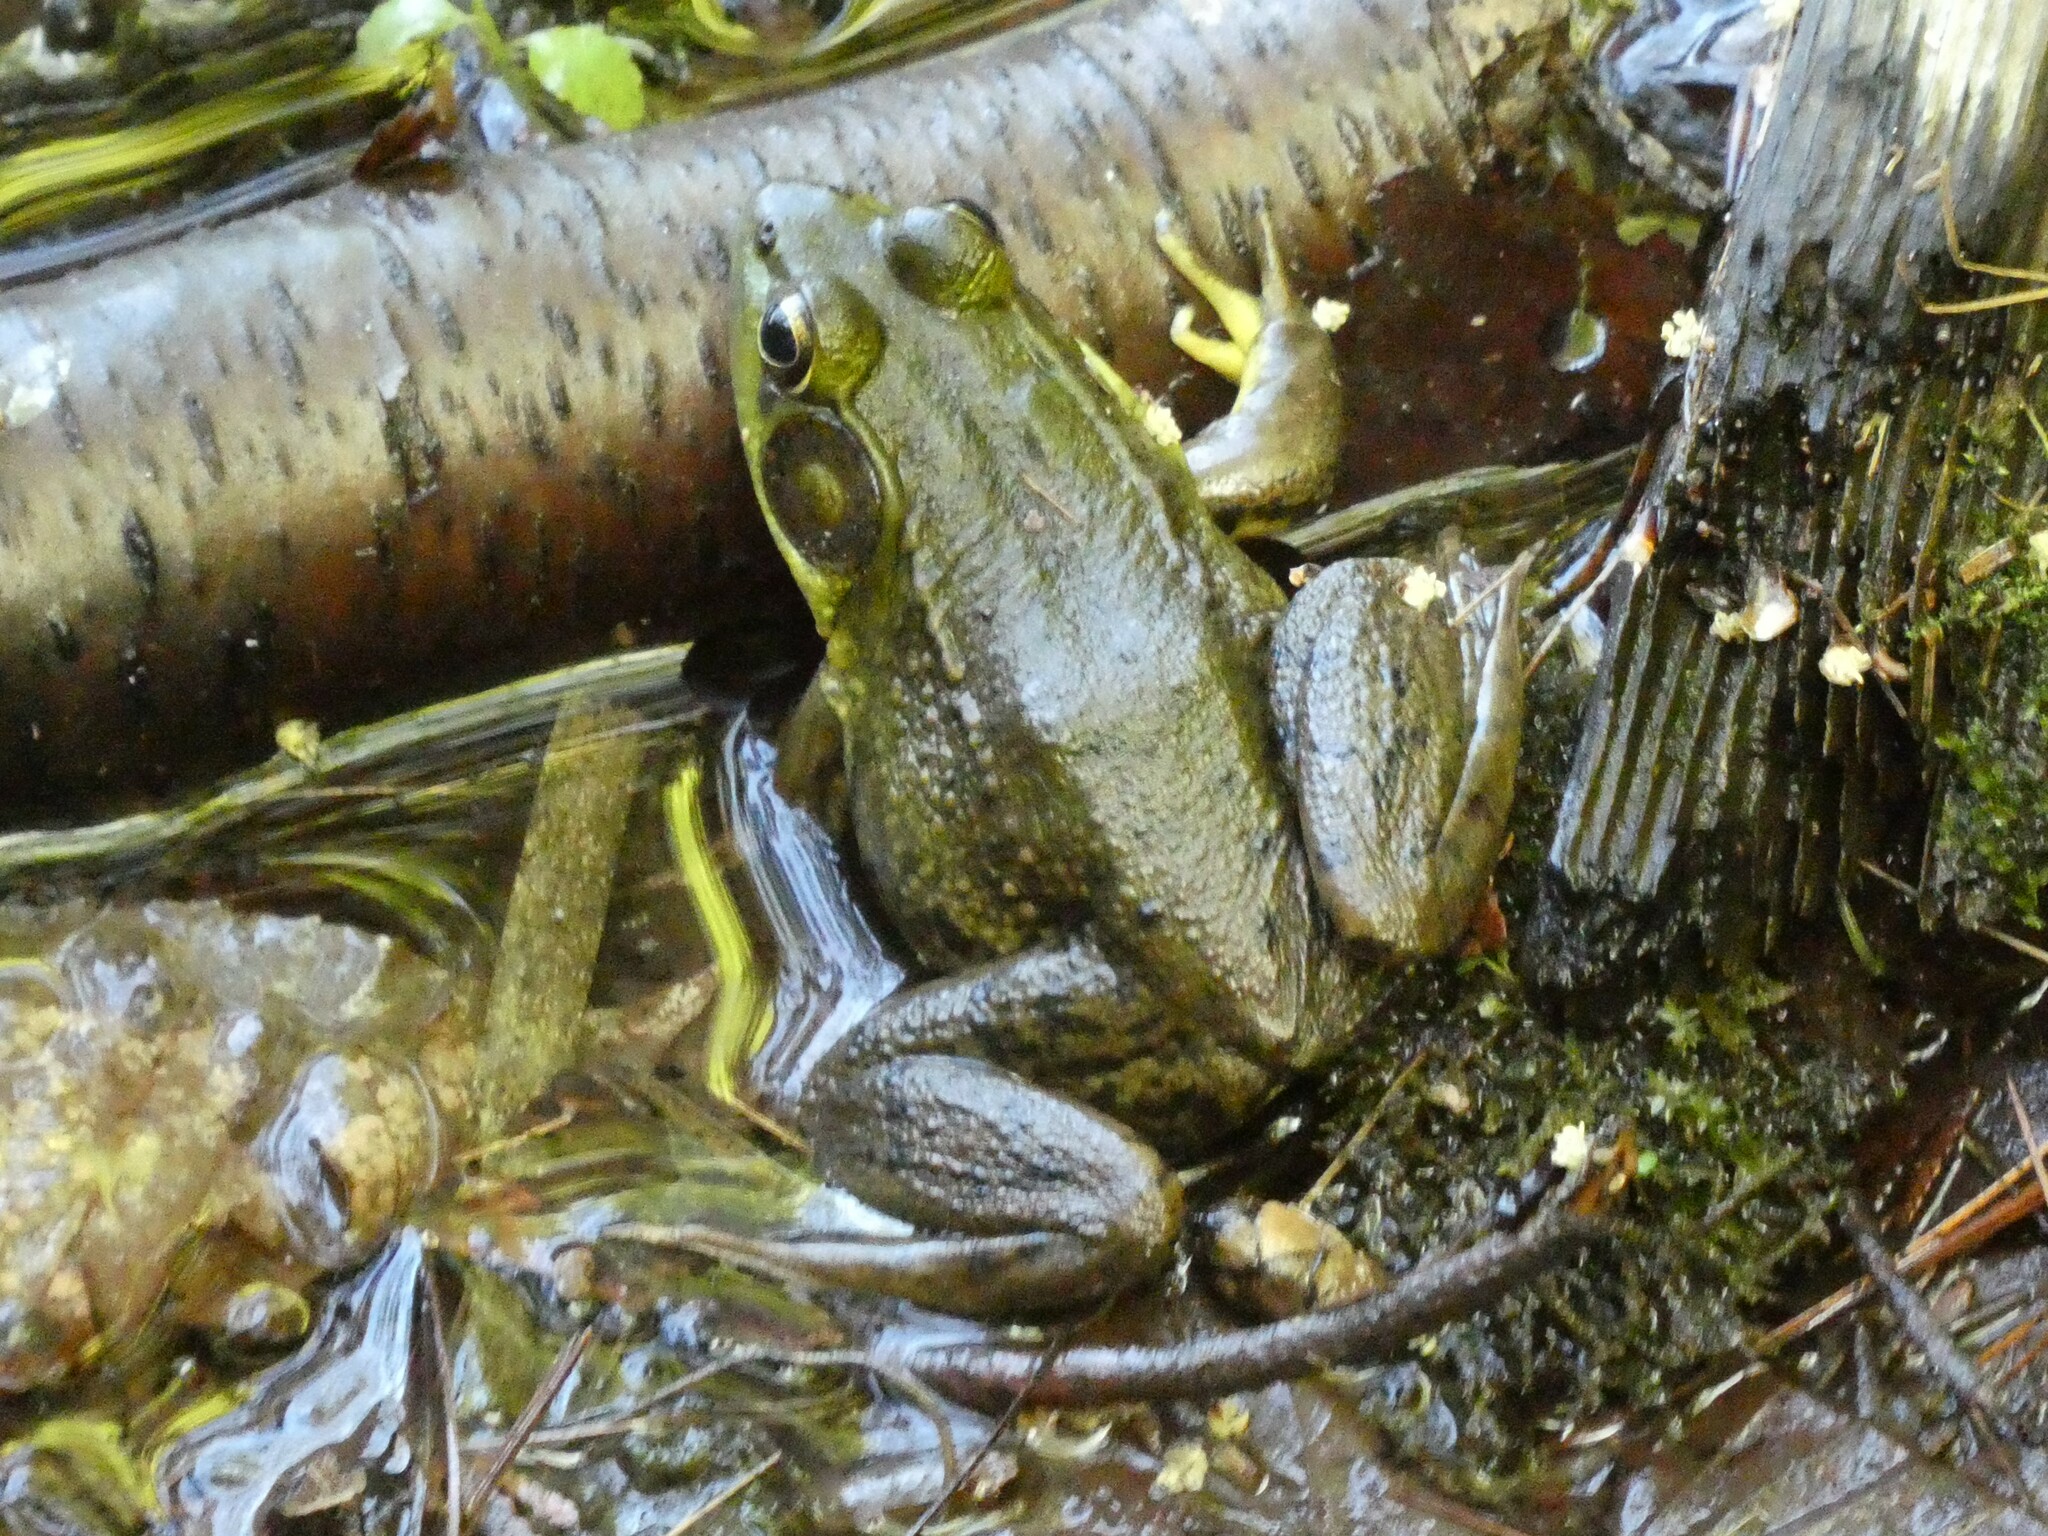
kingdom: Animalia
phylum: Chordata
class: Amphibia
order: Anura
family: Ranidae
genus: Lithobates
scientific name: Lithobates clamitans
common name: Green frog
